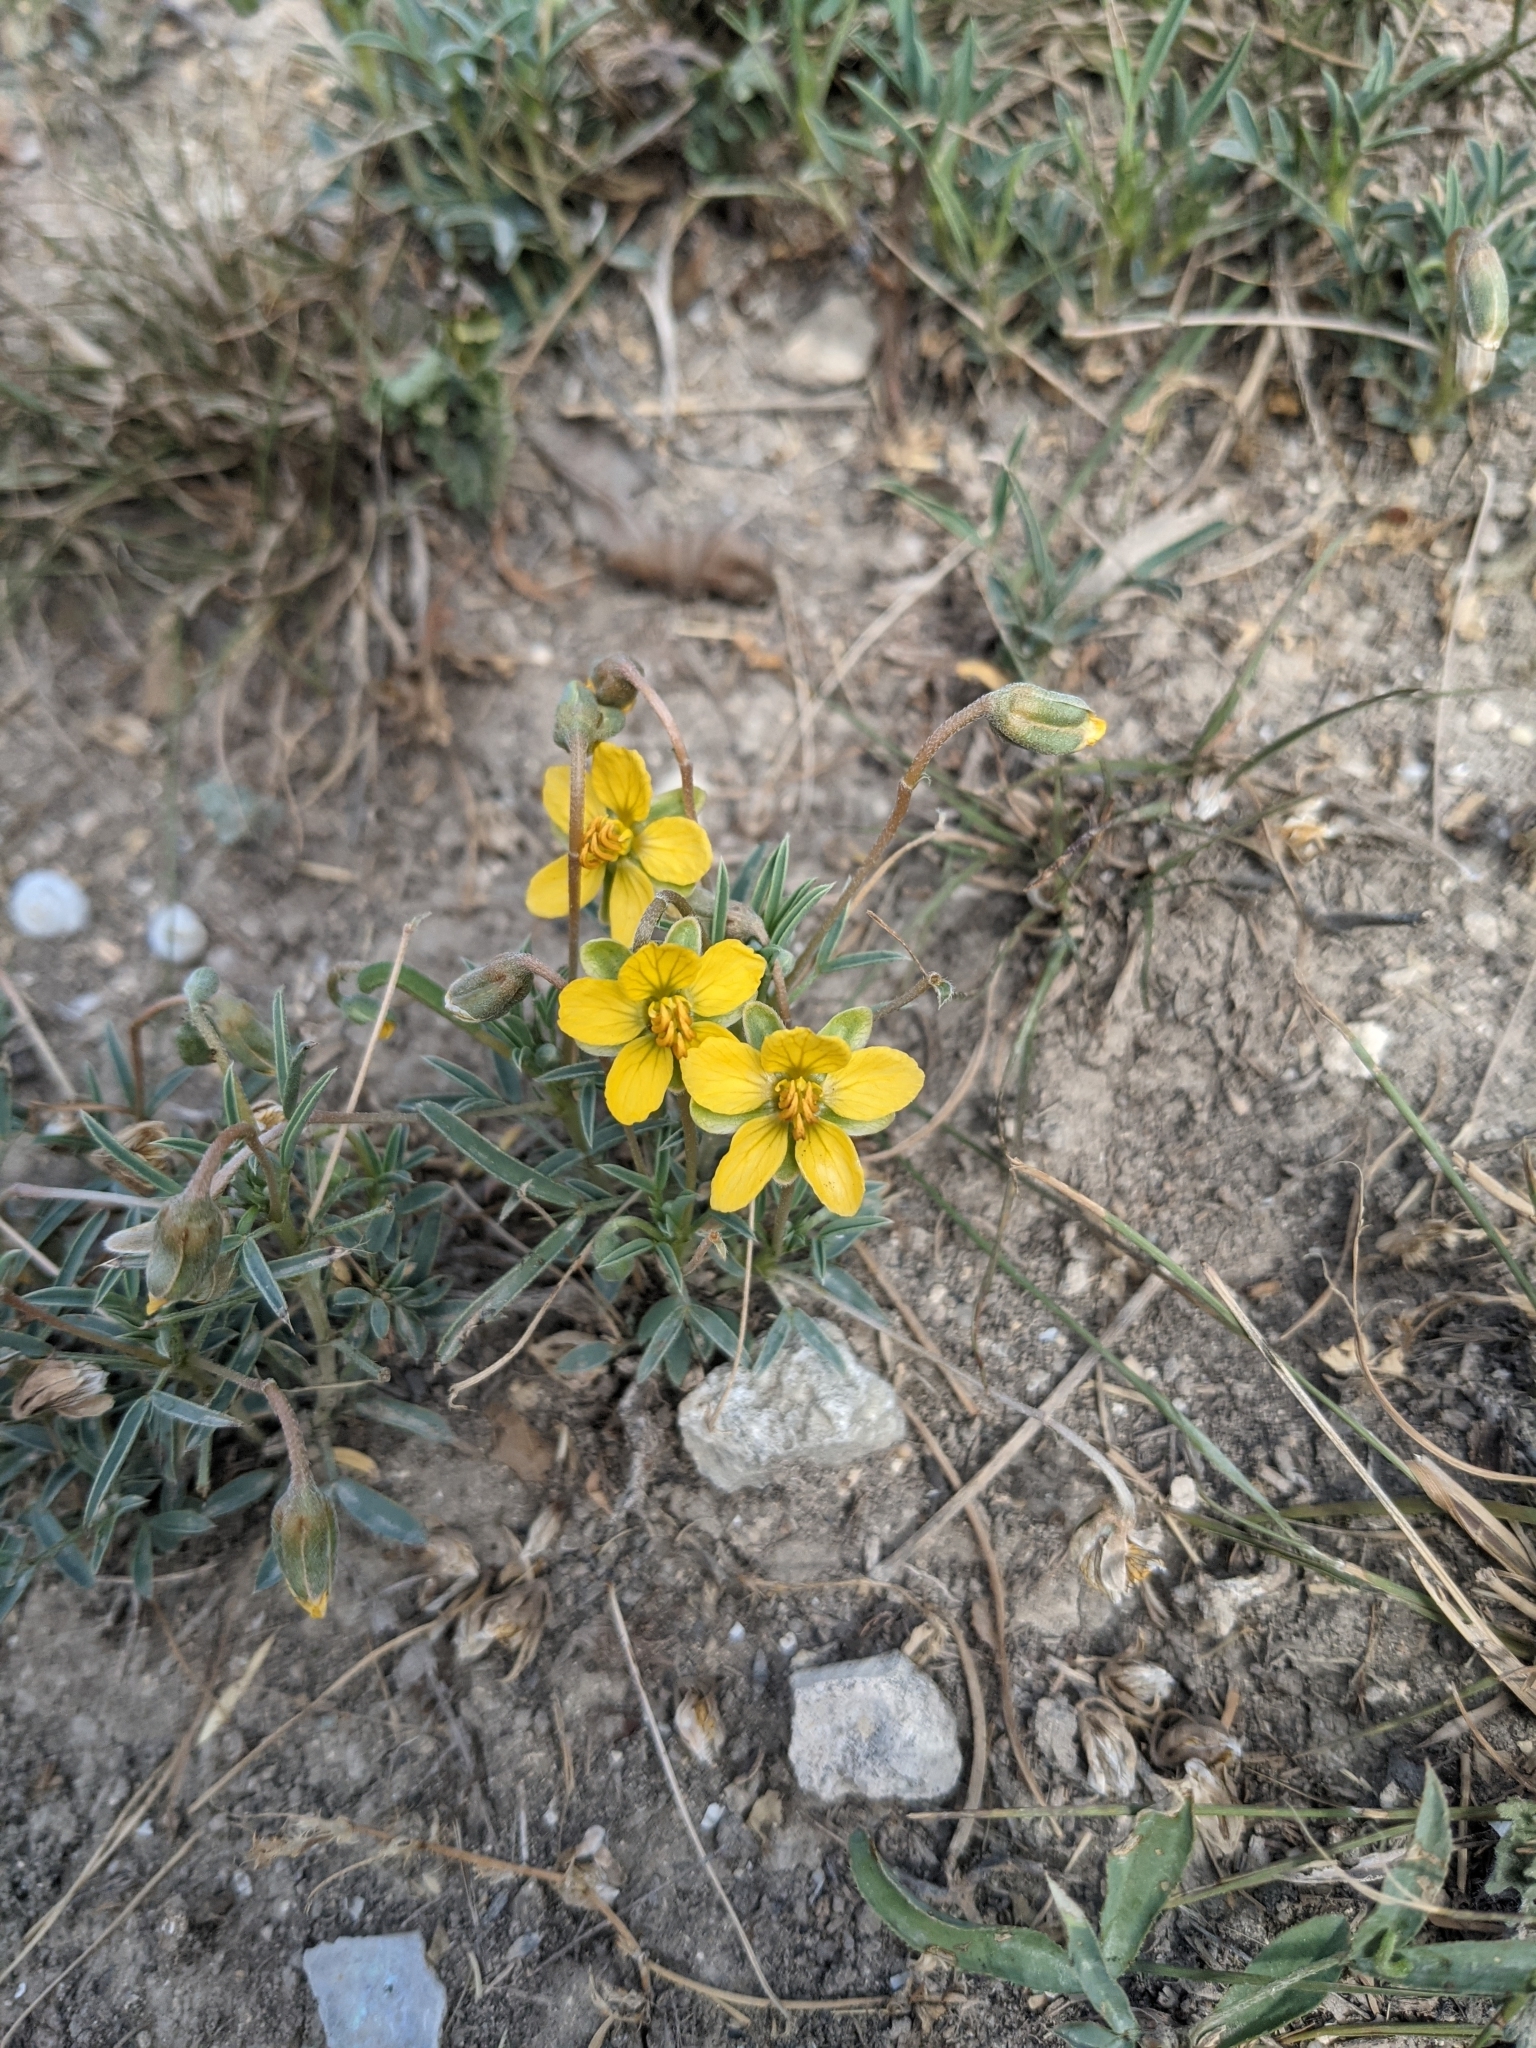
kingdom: Plantae
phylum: Tracheophyta
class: Magnoliopsida
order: Fabales
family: Fabaceae
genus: Senna
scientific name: Senna pumilio
